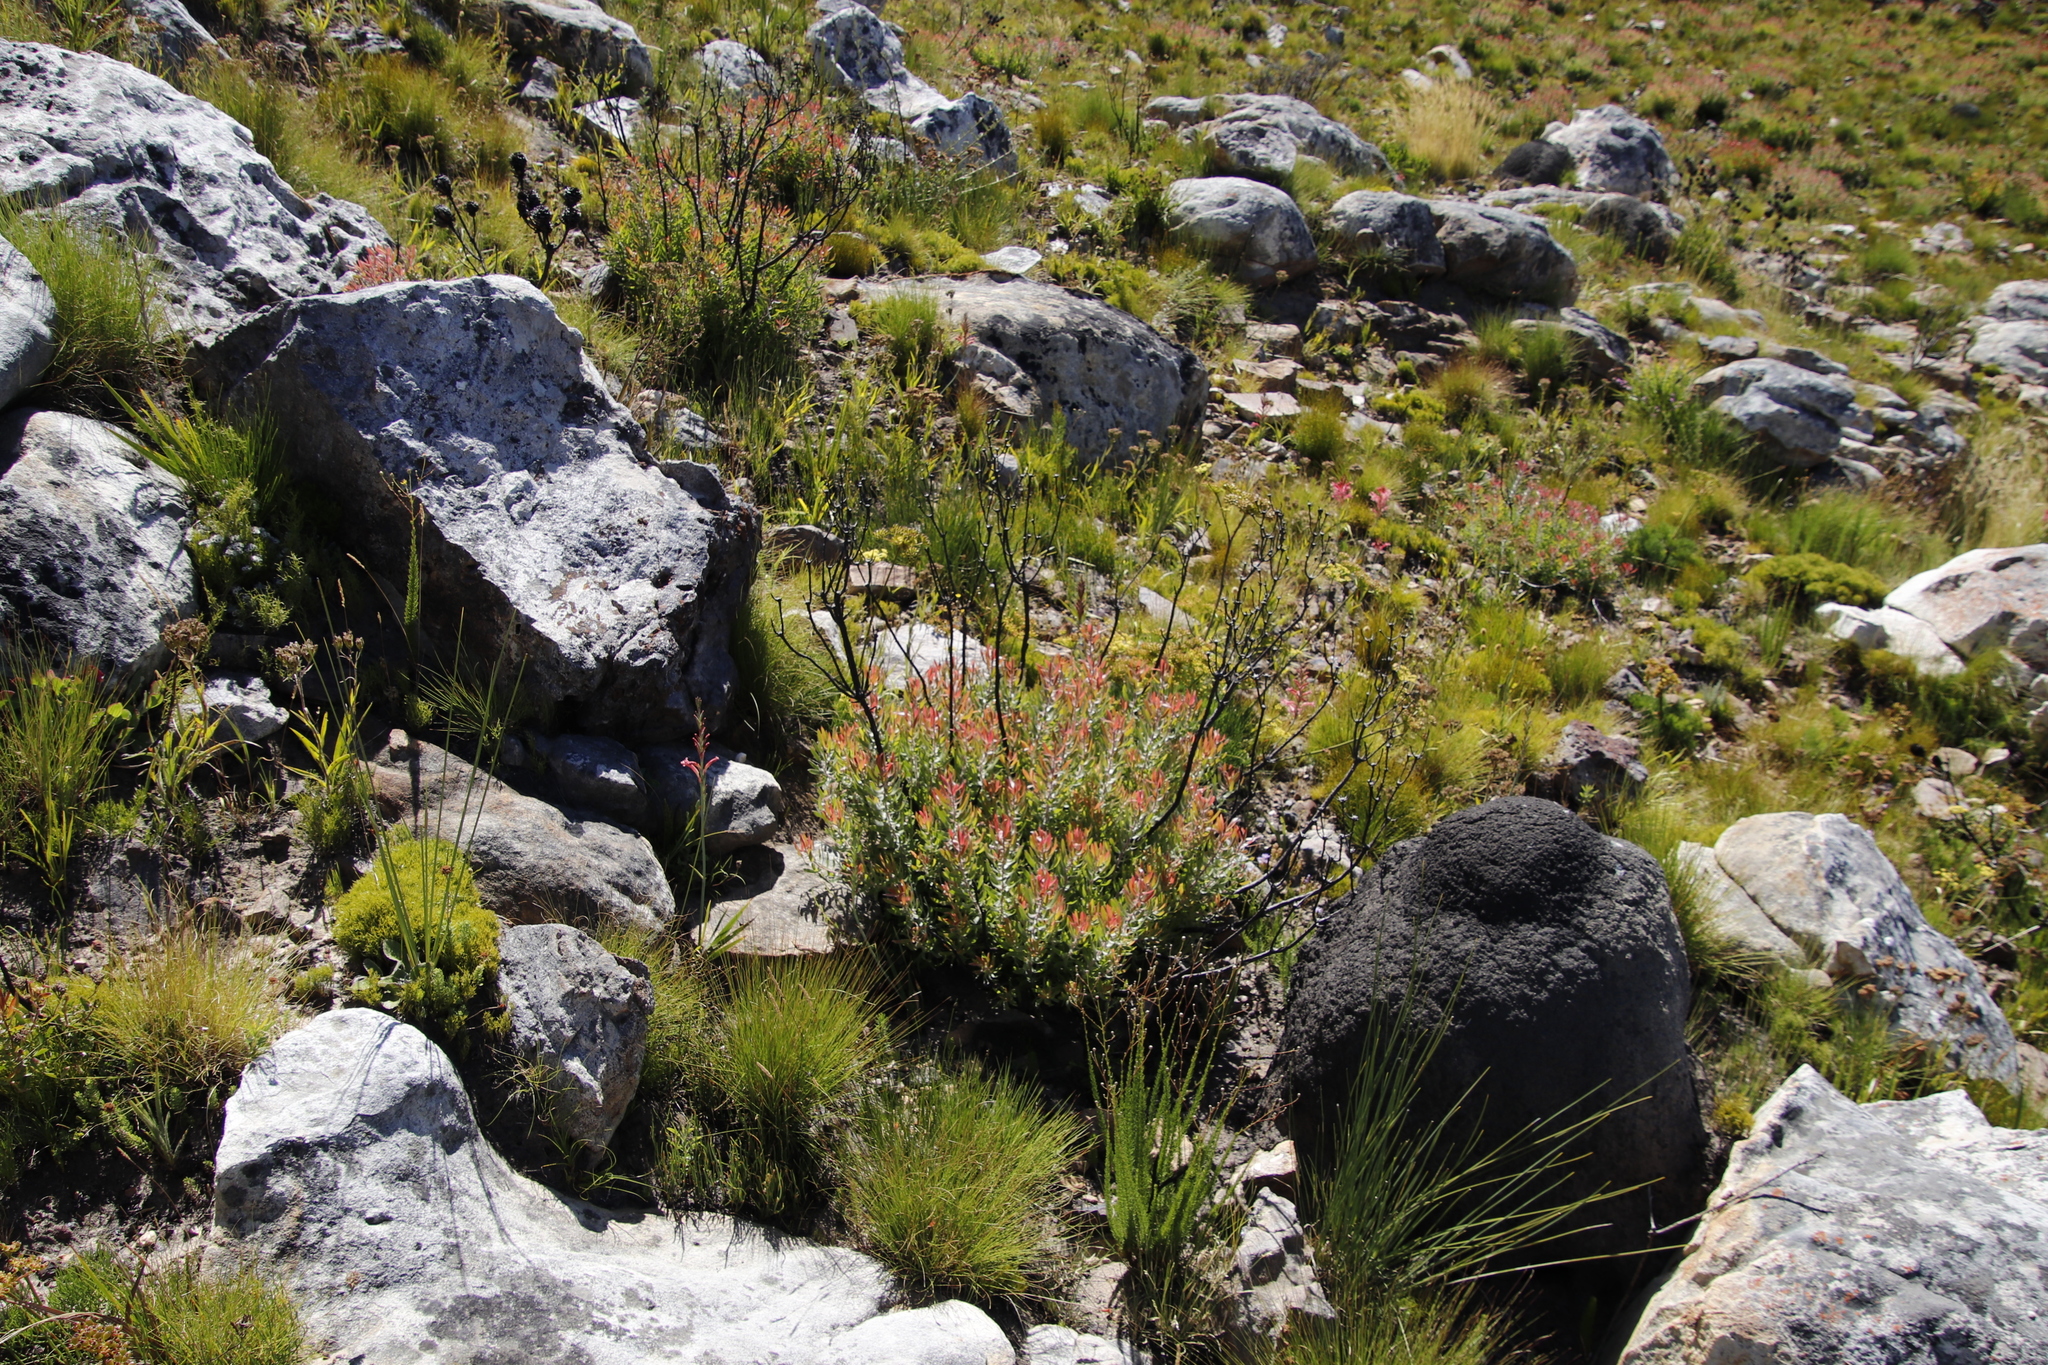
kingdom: Plantae
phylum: Tracheophyta
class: Magnoliopsida
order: Proteales
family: Proteaceae
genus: Leucadendron
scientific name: Leucadendron spissifolium
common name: Spear-leaf conebush
